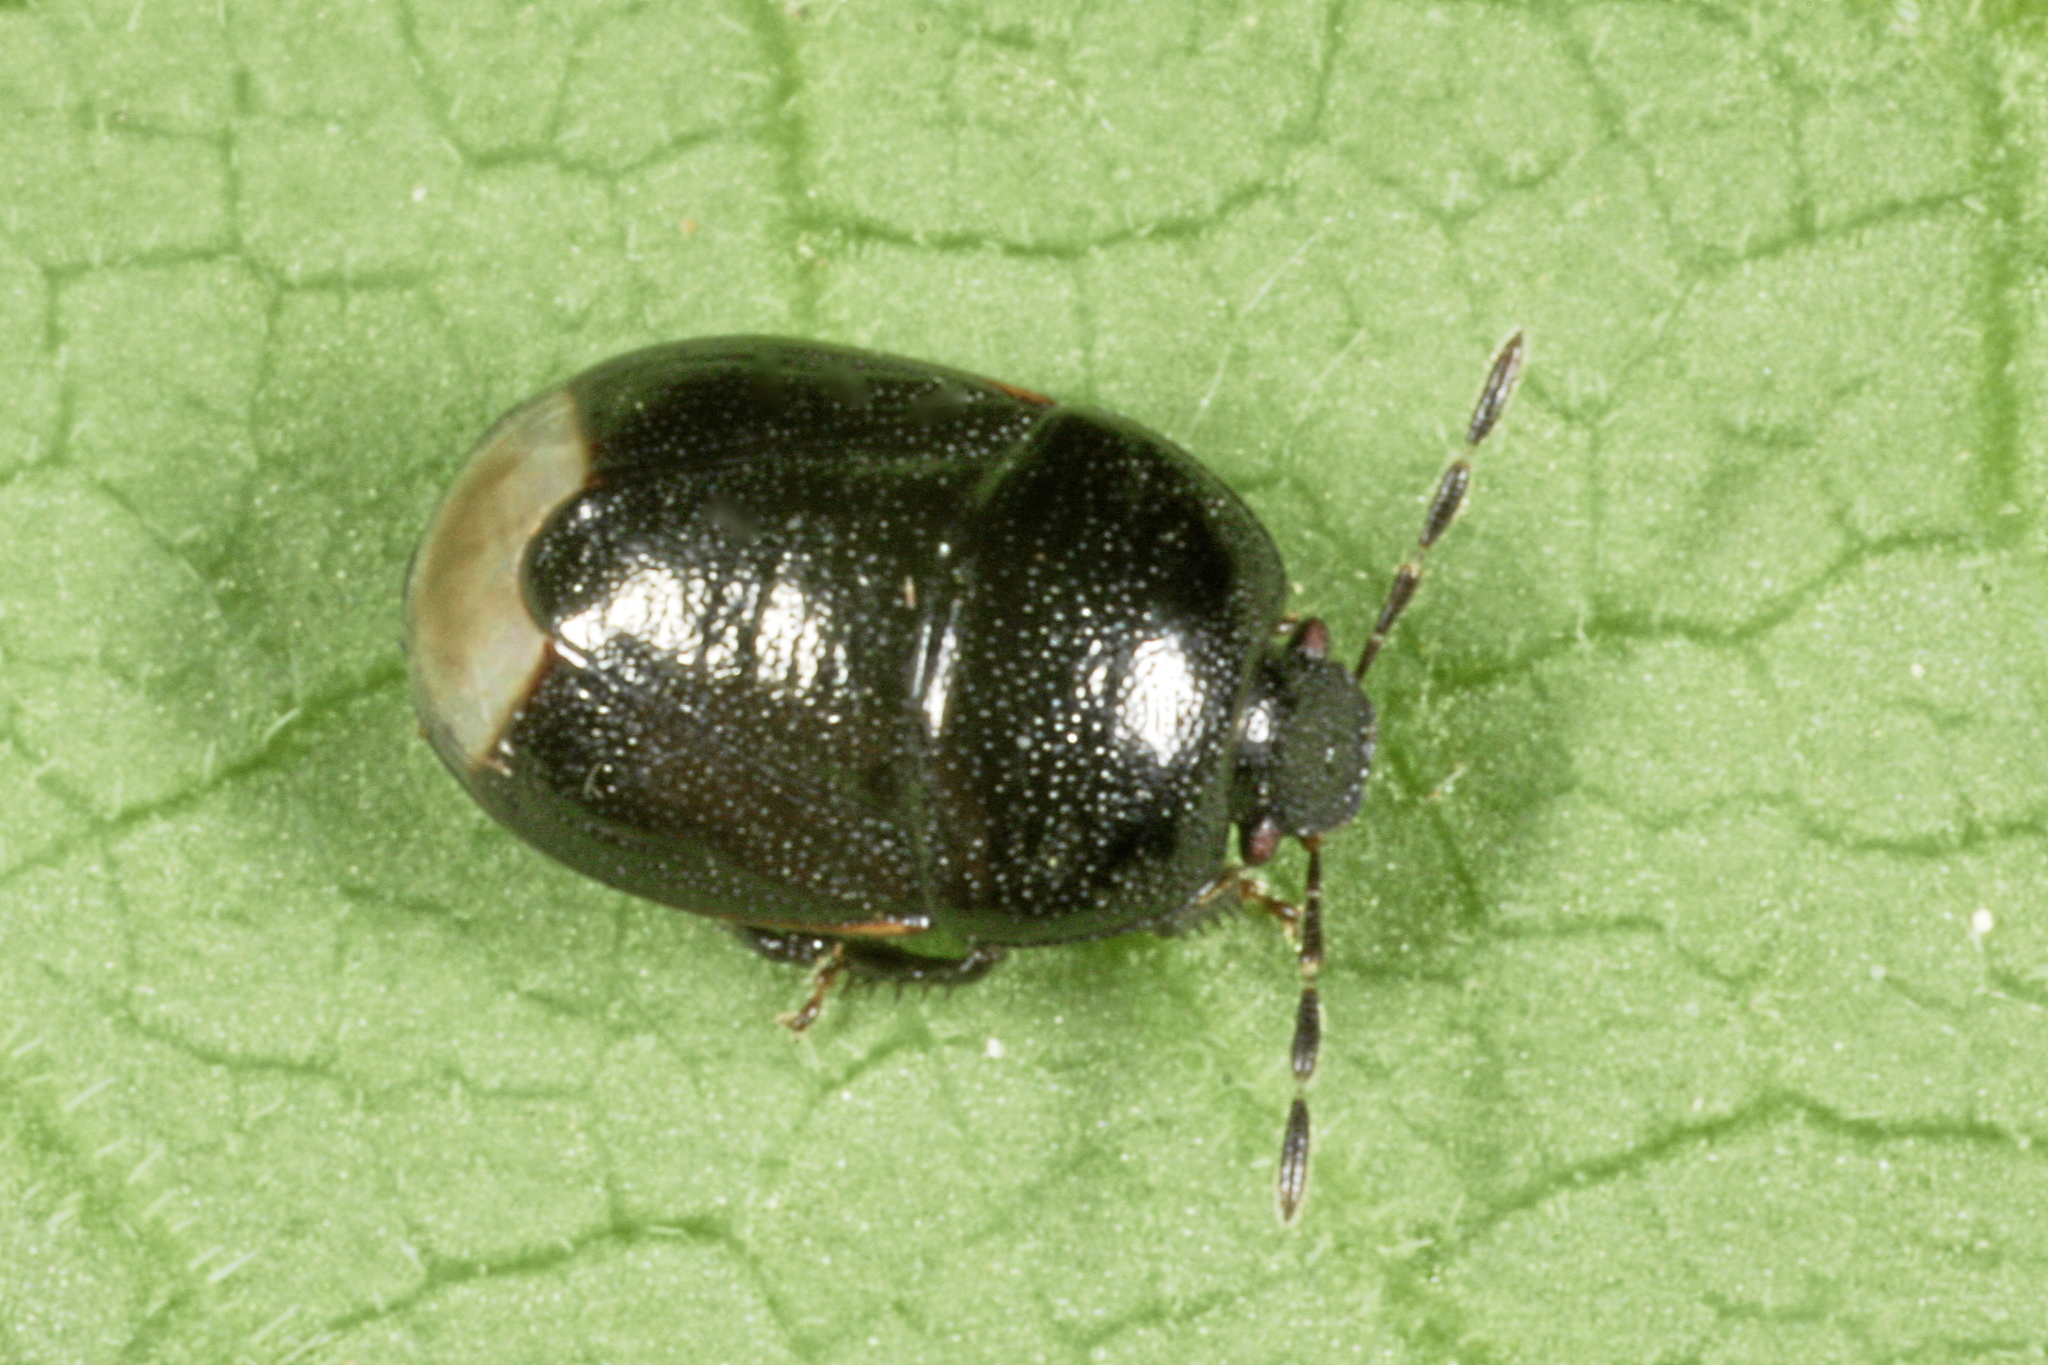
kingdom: Animalia
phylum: Arthropoda
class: Insecta
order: Hemiptera
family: Cydnidae
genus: Legnotus
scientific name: Legnotus picipes
